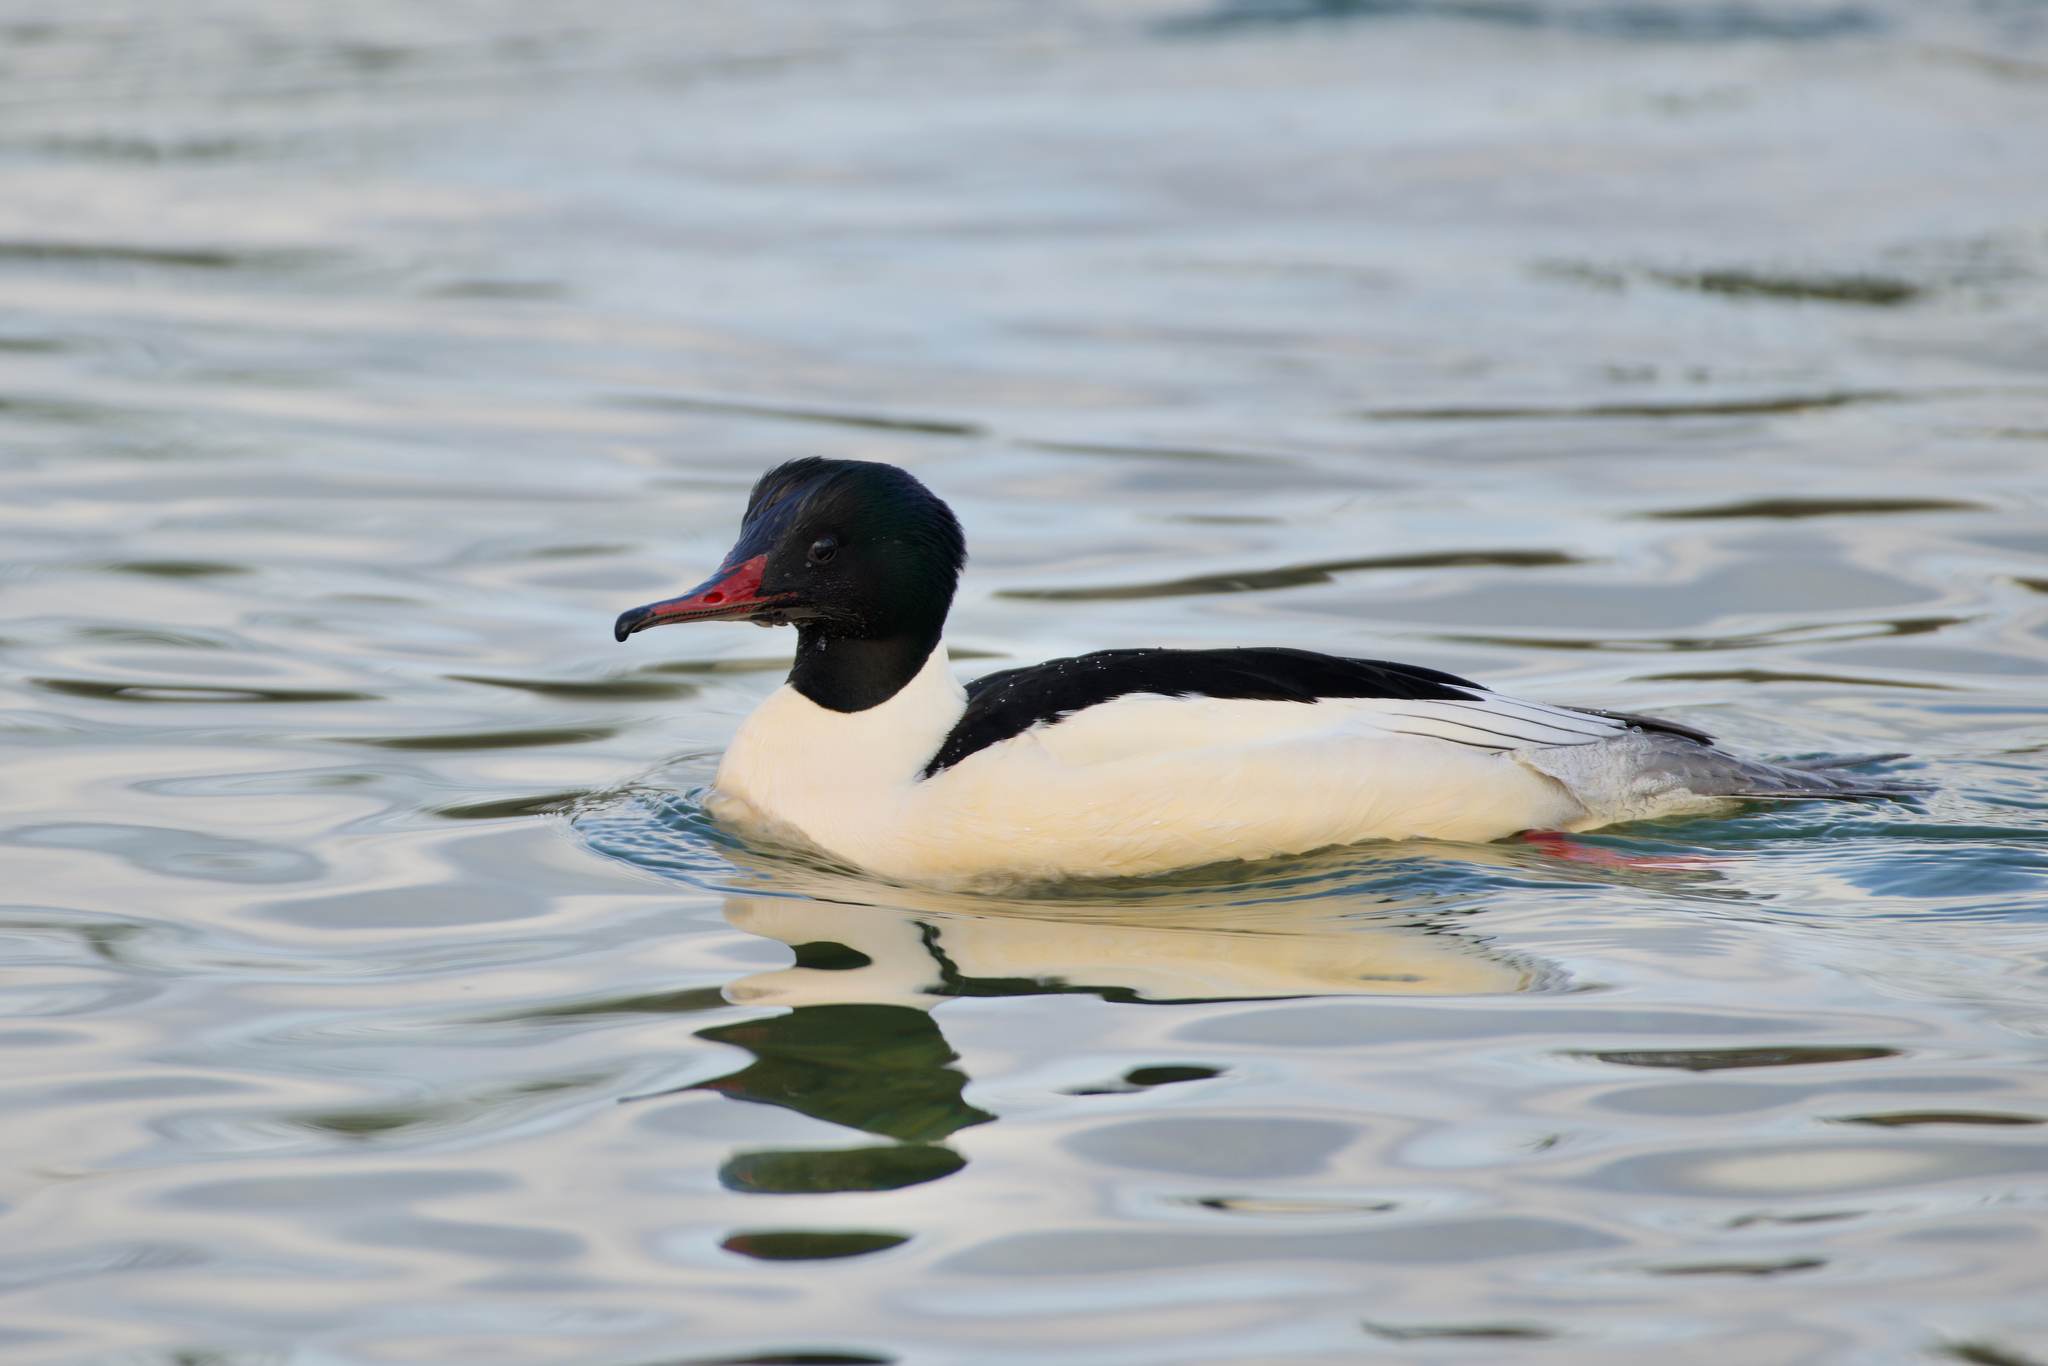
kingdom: Animalia
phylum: Chordata
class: Aves
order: Anseriformes
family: Anatidae
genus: Mergus
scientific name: Mergus merganser
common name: Common merganser
